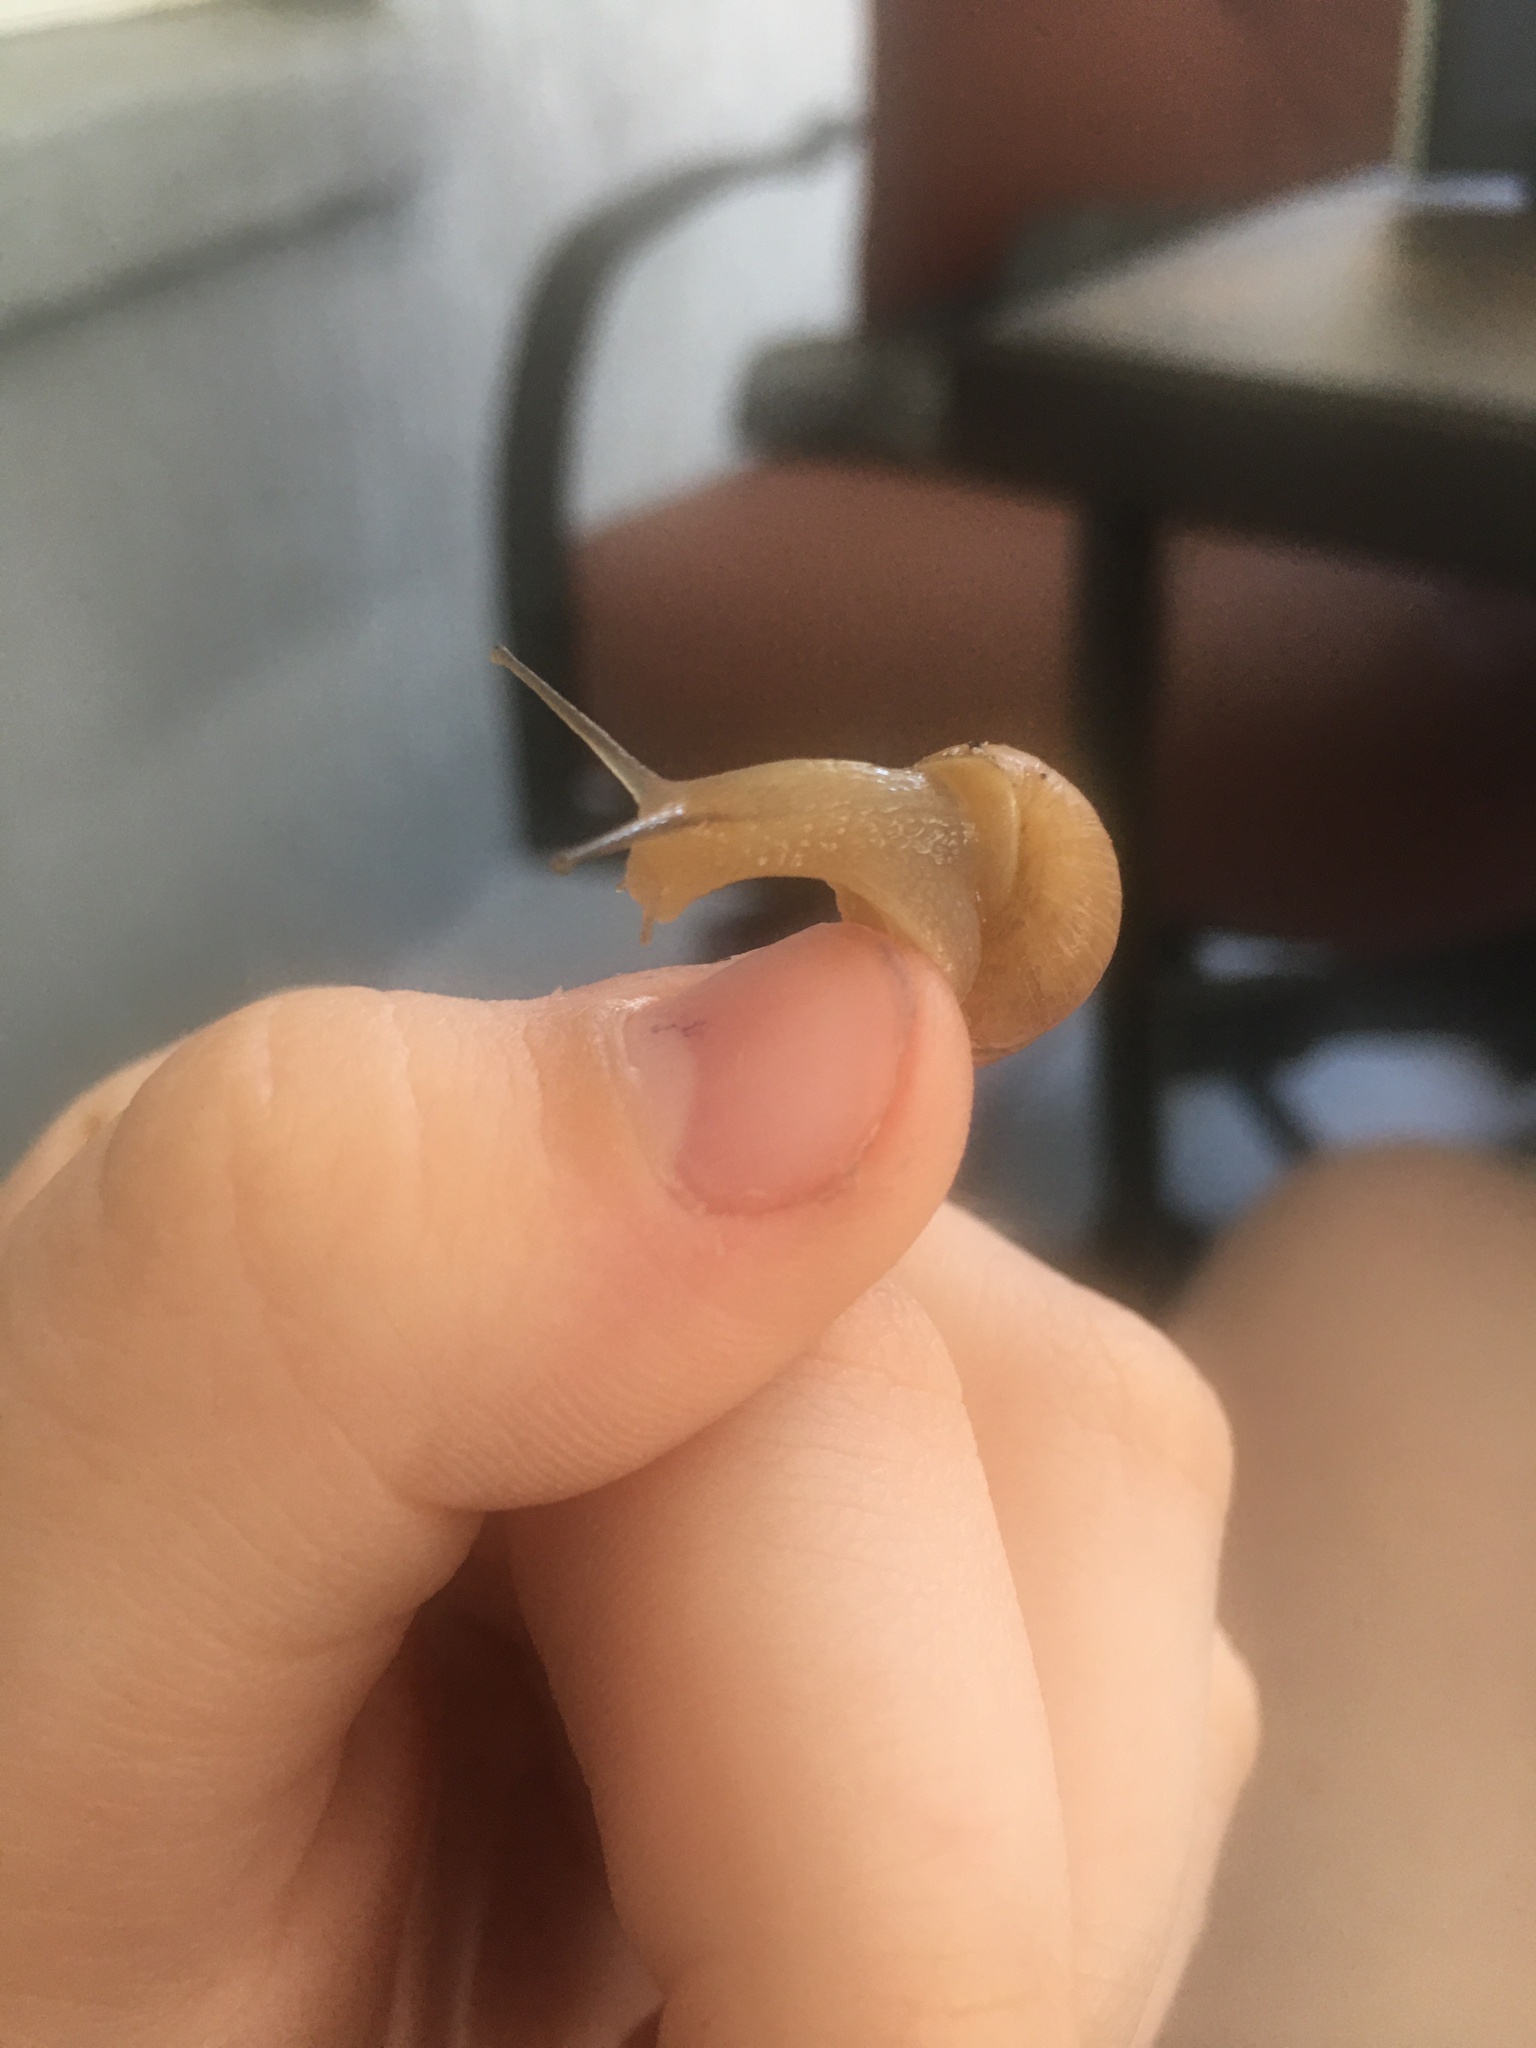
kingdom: Animalia
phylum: Mollusca
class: Gastropoda
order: Stylommatophora
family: Bulimulidae
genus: Bulimulus
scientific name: Bulimulus bonariensis
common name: Snail
